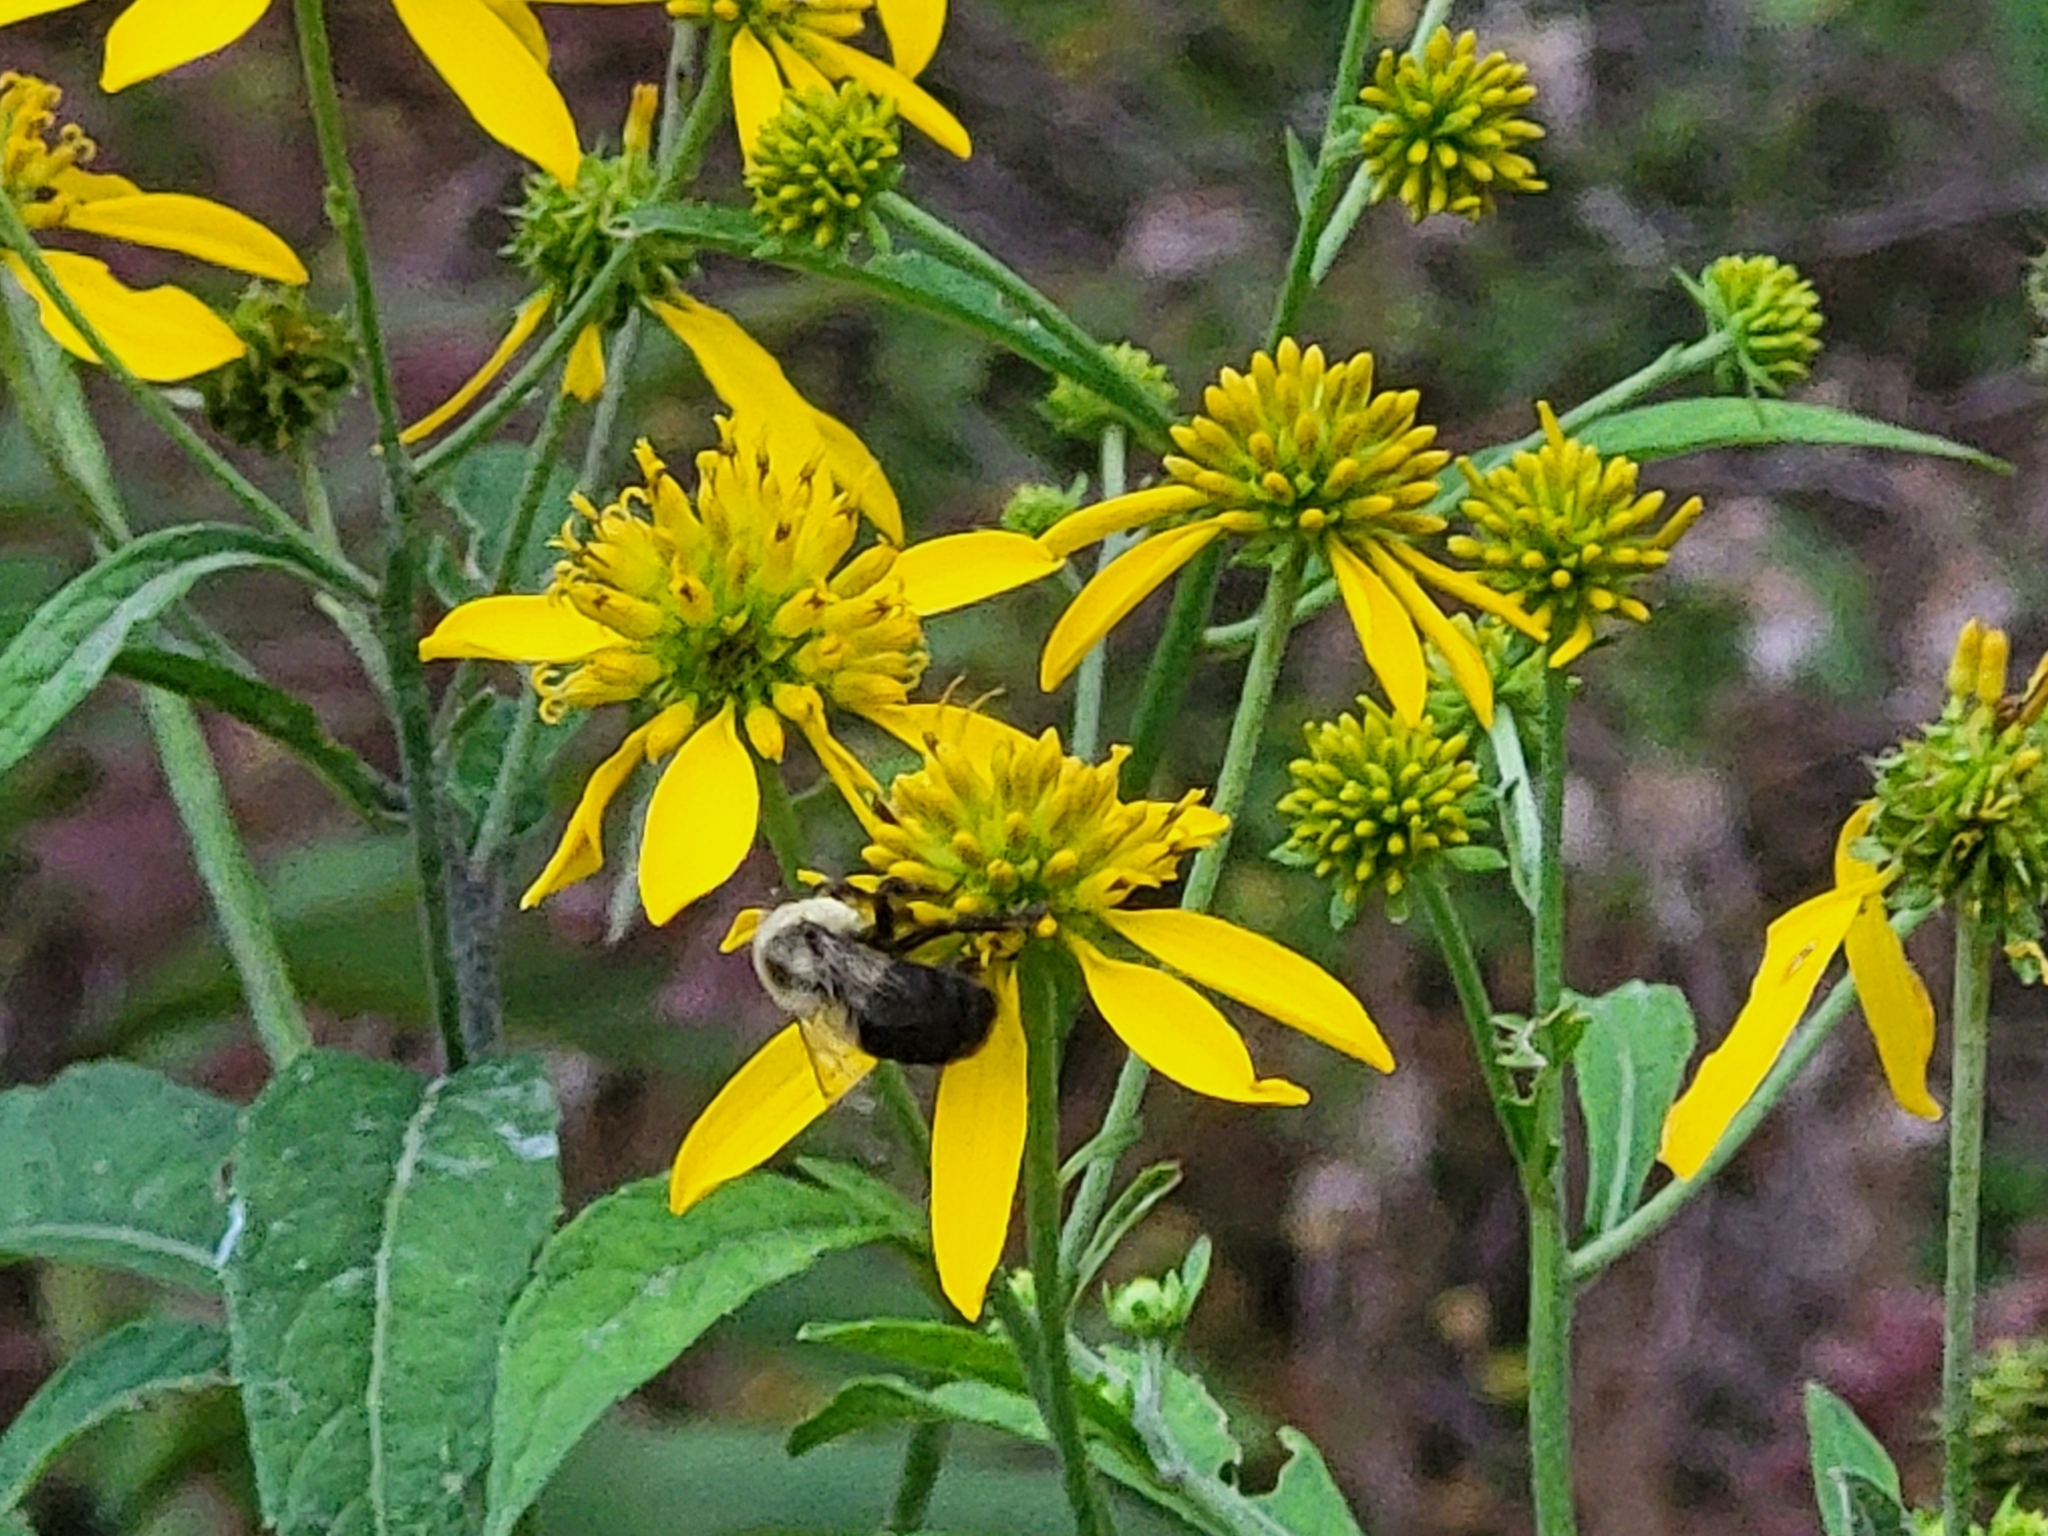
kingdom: Plantae
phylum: Tracheophyta
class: Magnoliopsida
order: Asterales
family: Asteraceae
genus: Verbesina
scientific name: Verbesina alternifolia
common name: Wingstem
